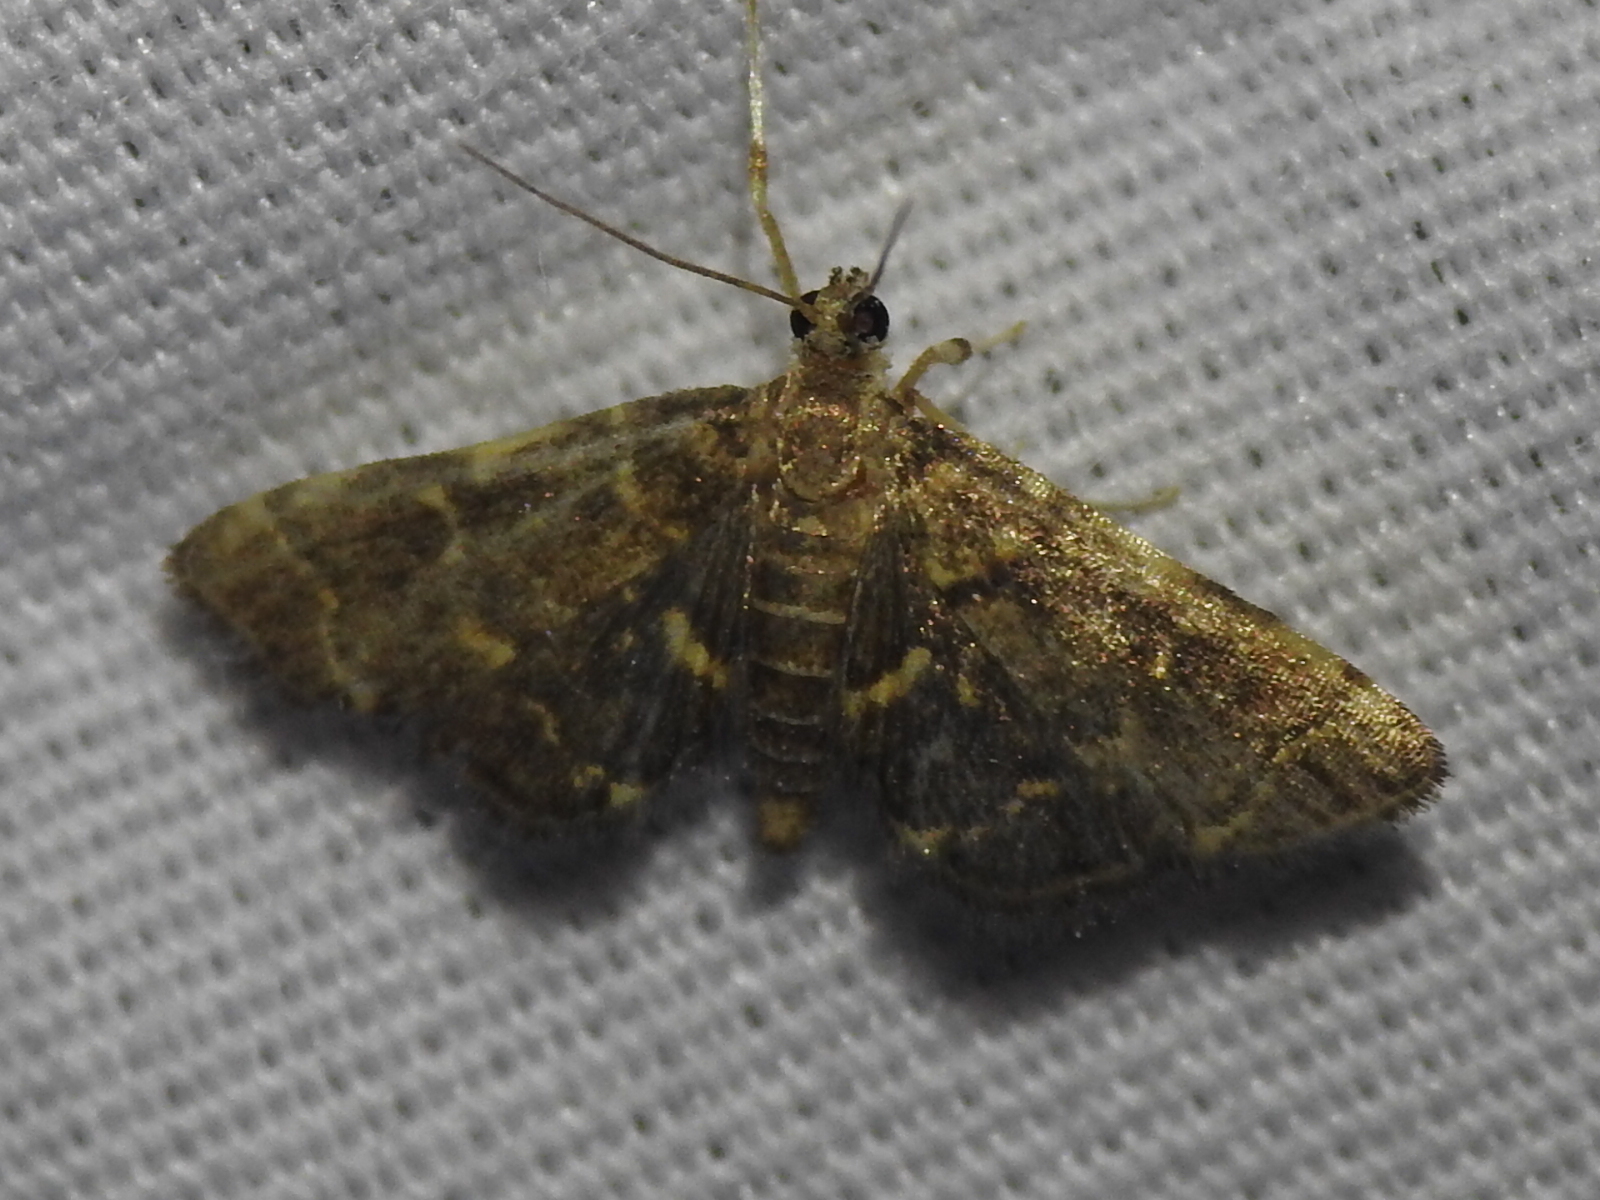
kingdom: Animalia
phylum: Arthropoda
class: Insecta
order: Lepidoptera
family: Crambidae
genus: Anageshna
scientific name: Anageshna primordialis
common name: Yellow-spotted webworm moth
